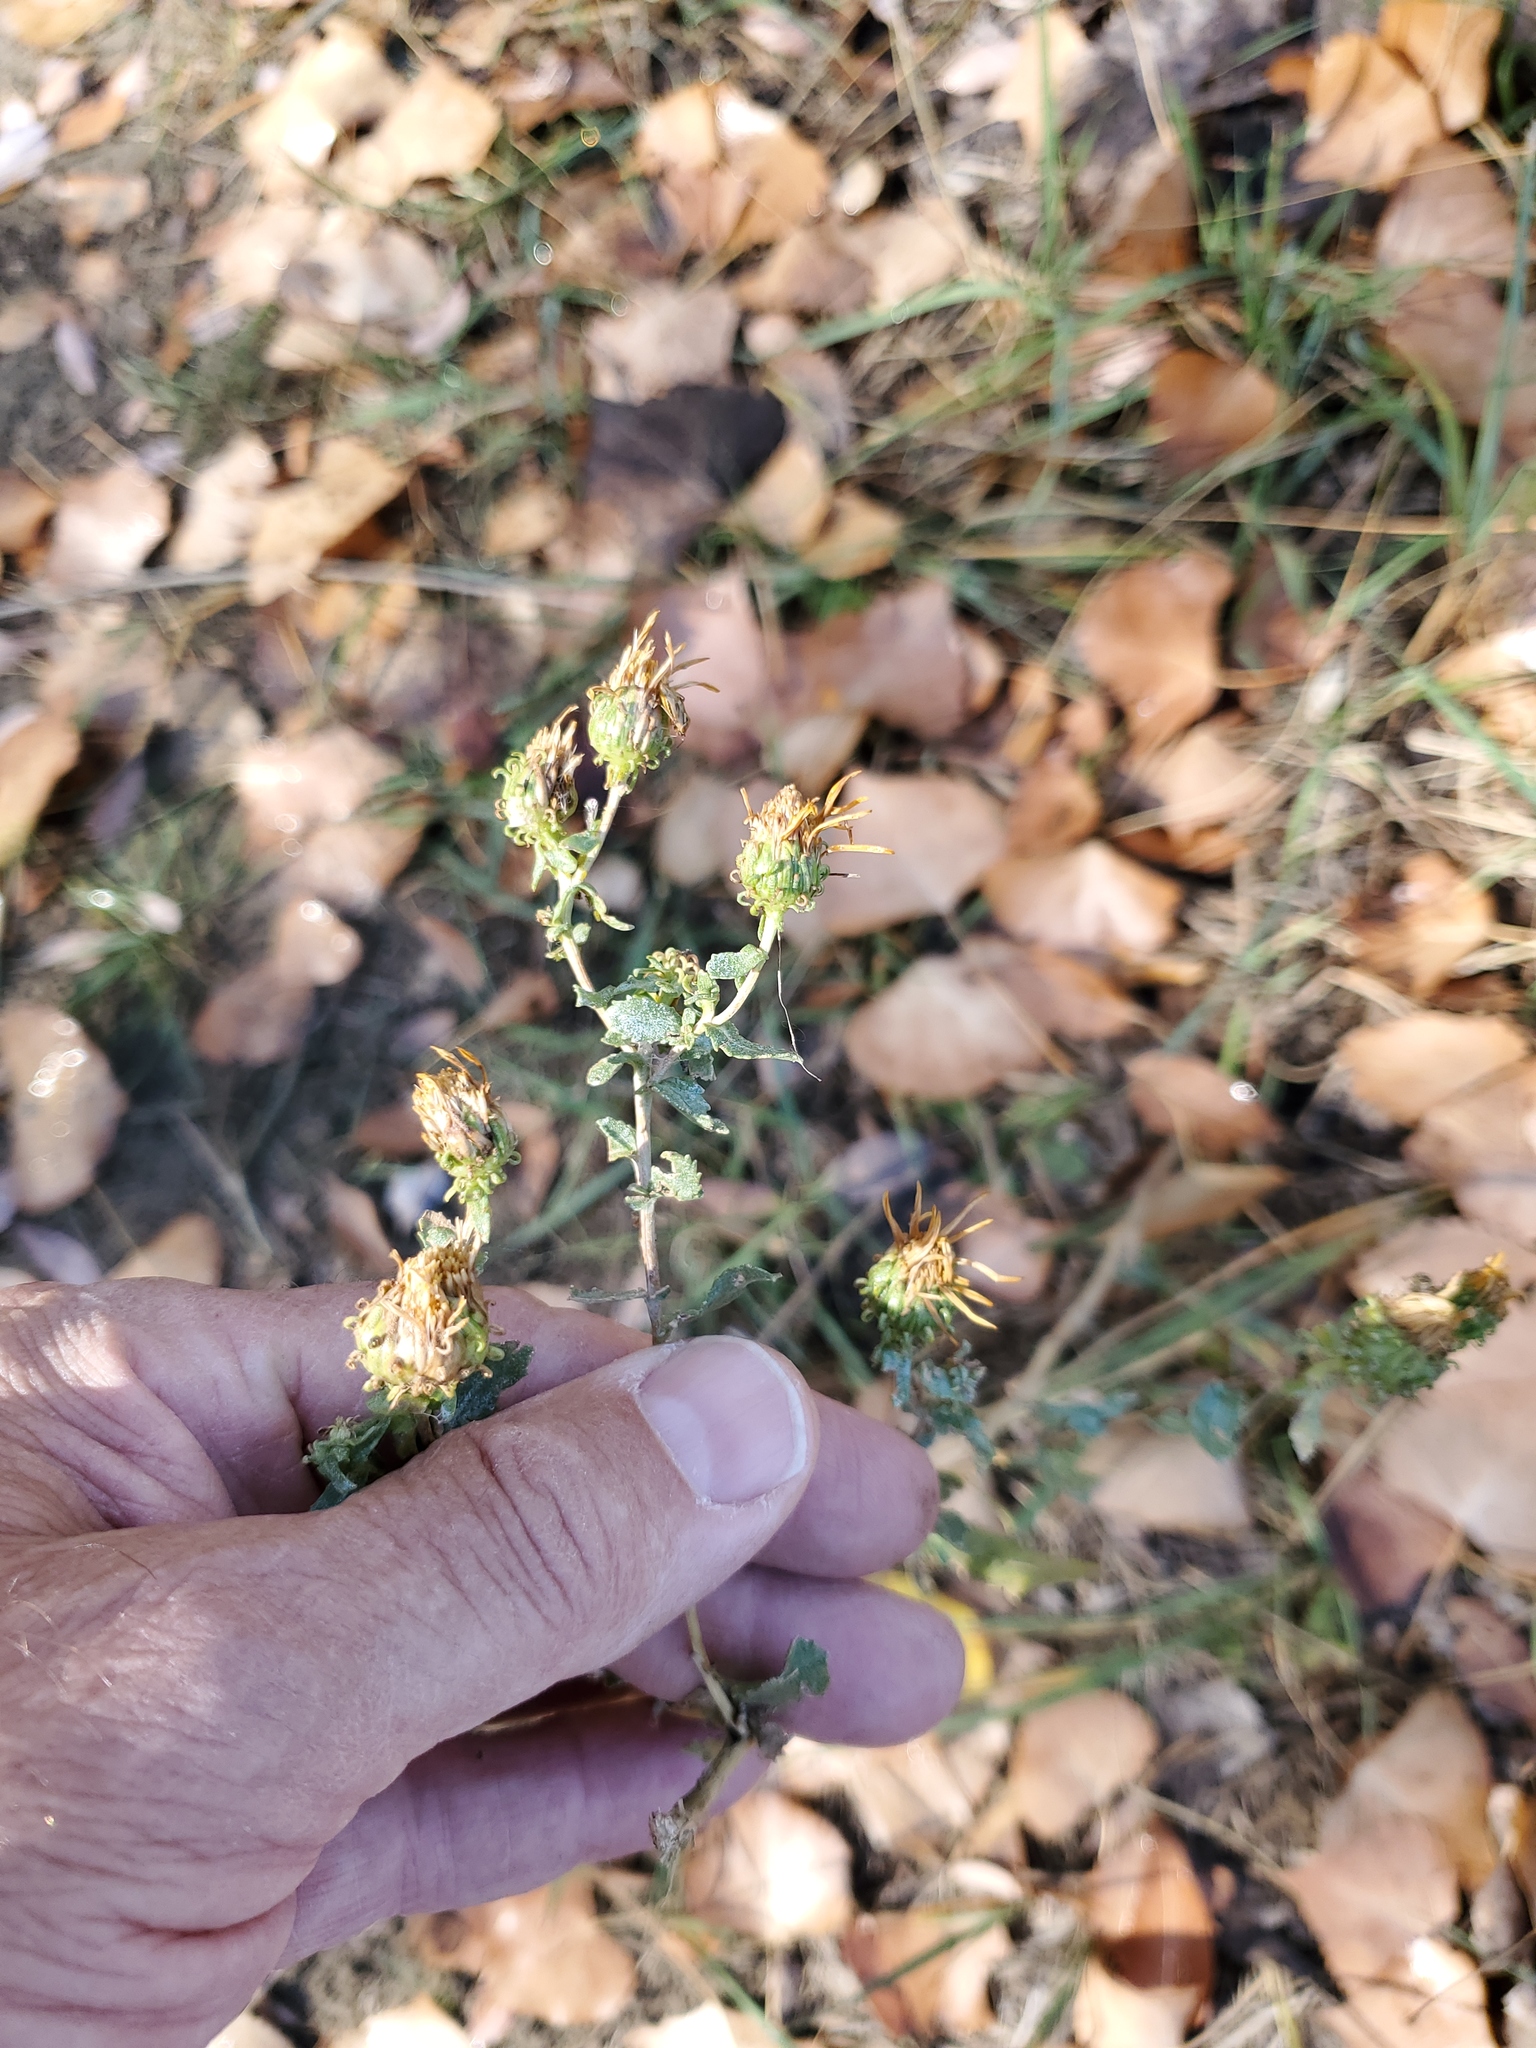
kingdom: Plantae
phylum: Tracheophyta
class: Magnoliopsida
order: Asterales
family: Asteraceae
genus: Grindelia
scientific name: Grindelia squarrosa
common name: Curly-cup gumweed
